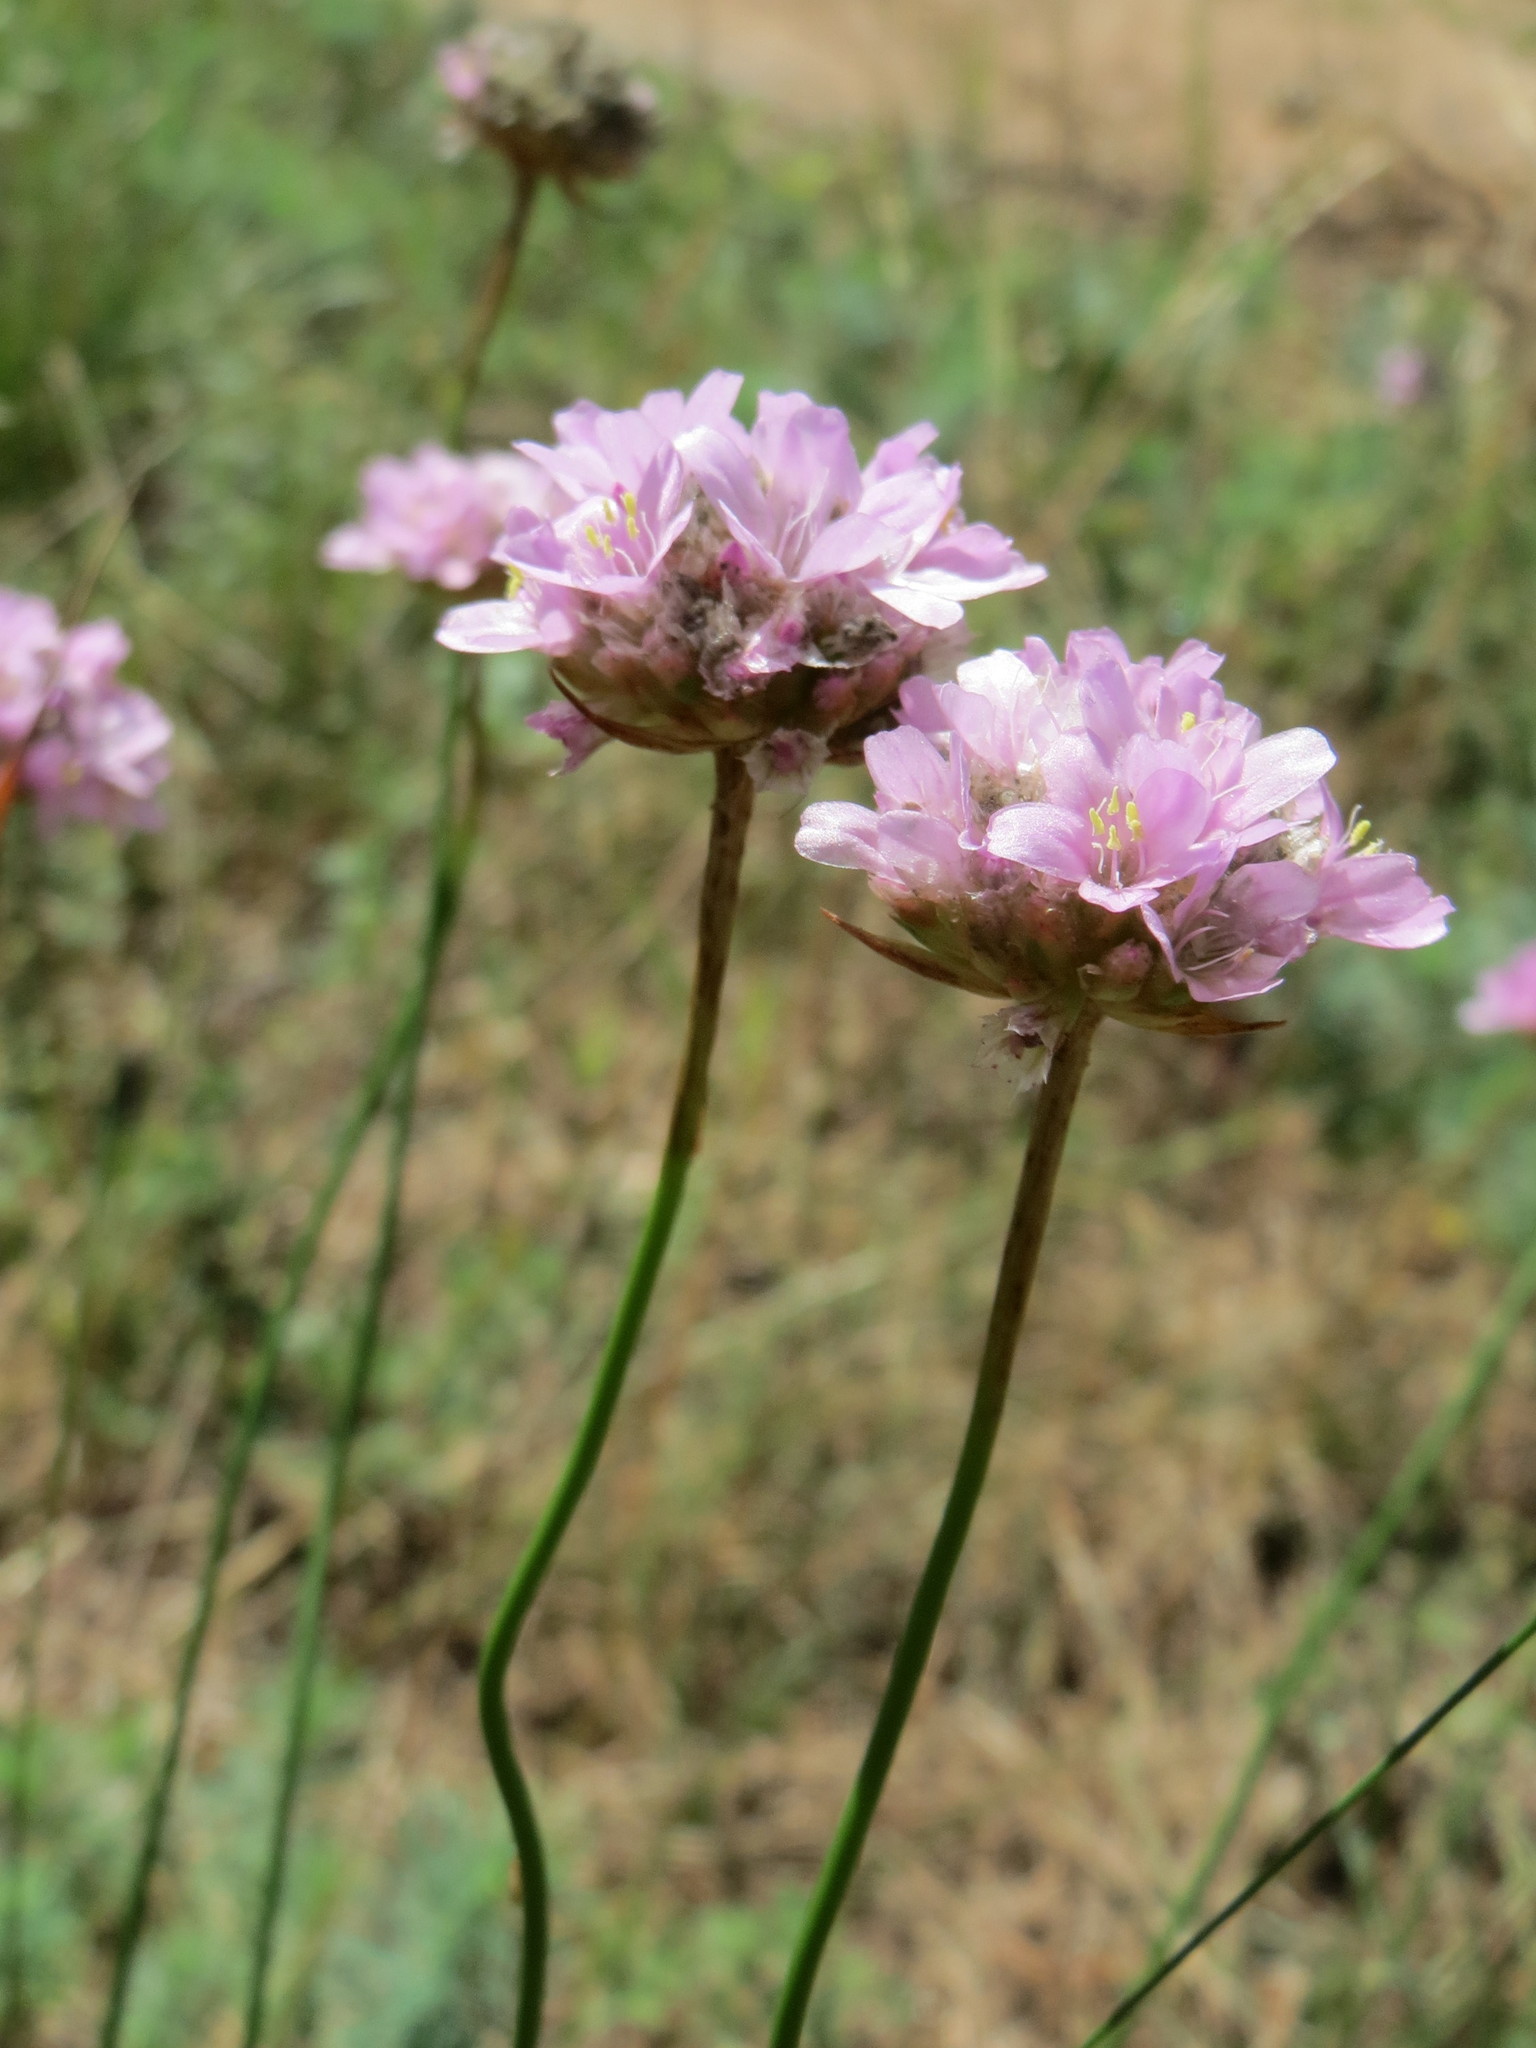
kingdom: Plantae
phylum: Tracheophyta
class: Magnoliopsida
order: Caryophyllales
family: Plumbaginaceae
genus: Armeria
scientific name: Armeria maritima
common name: Thrift
